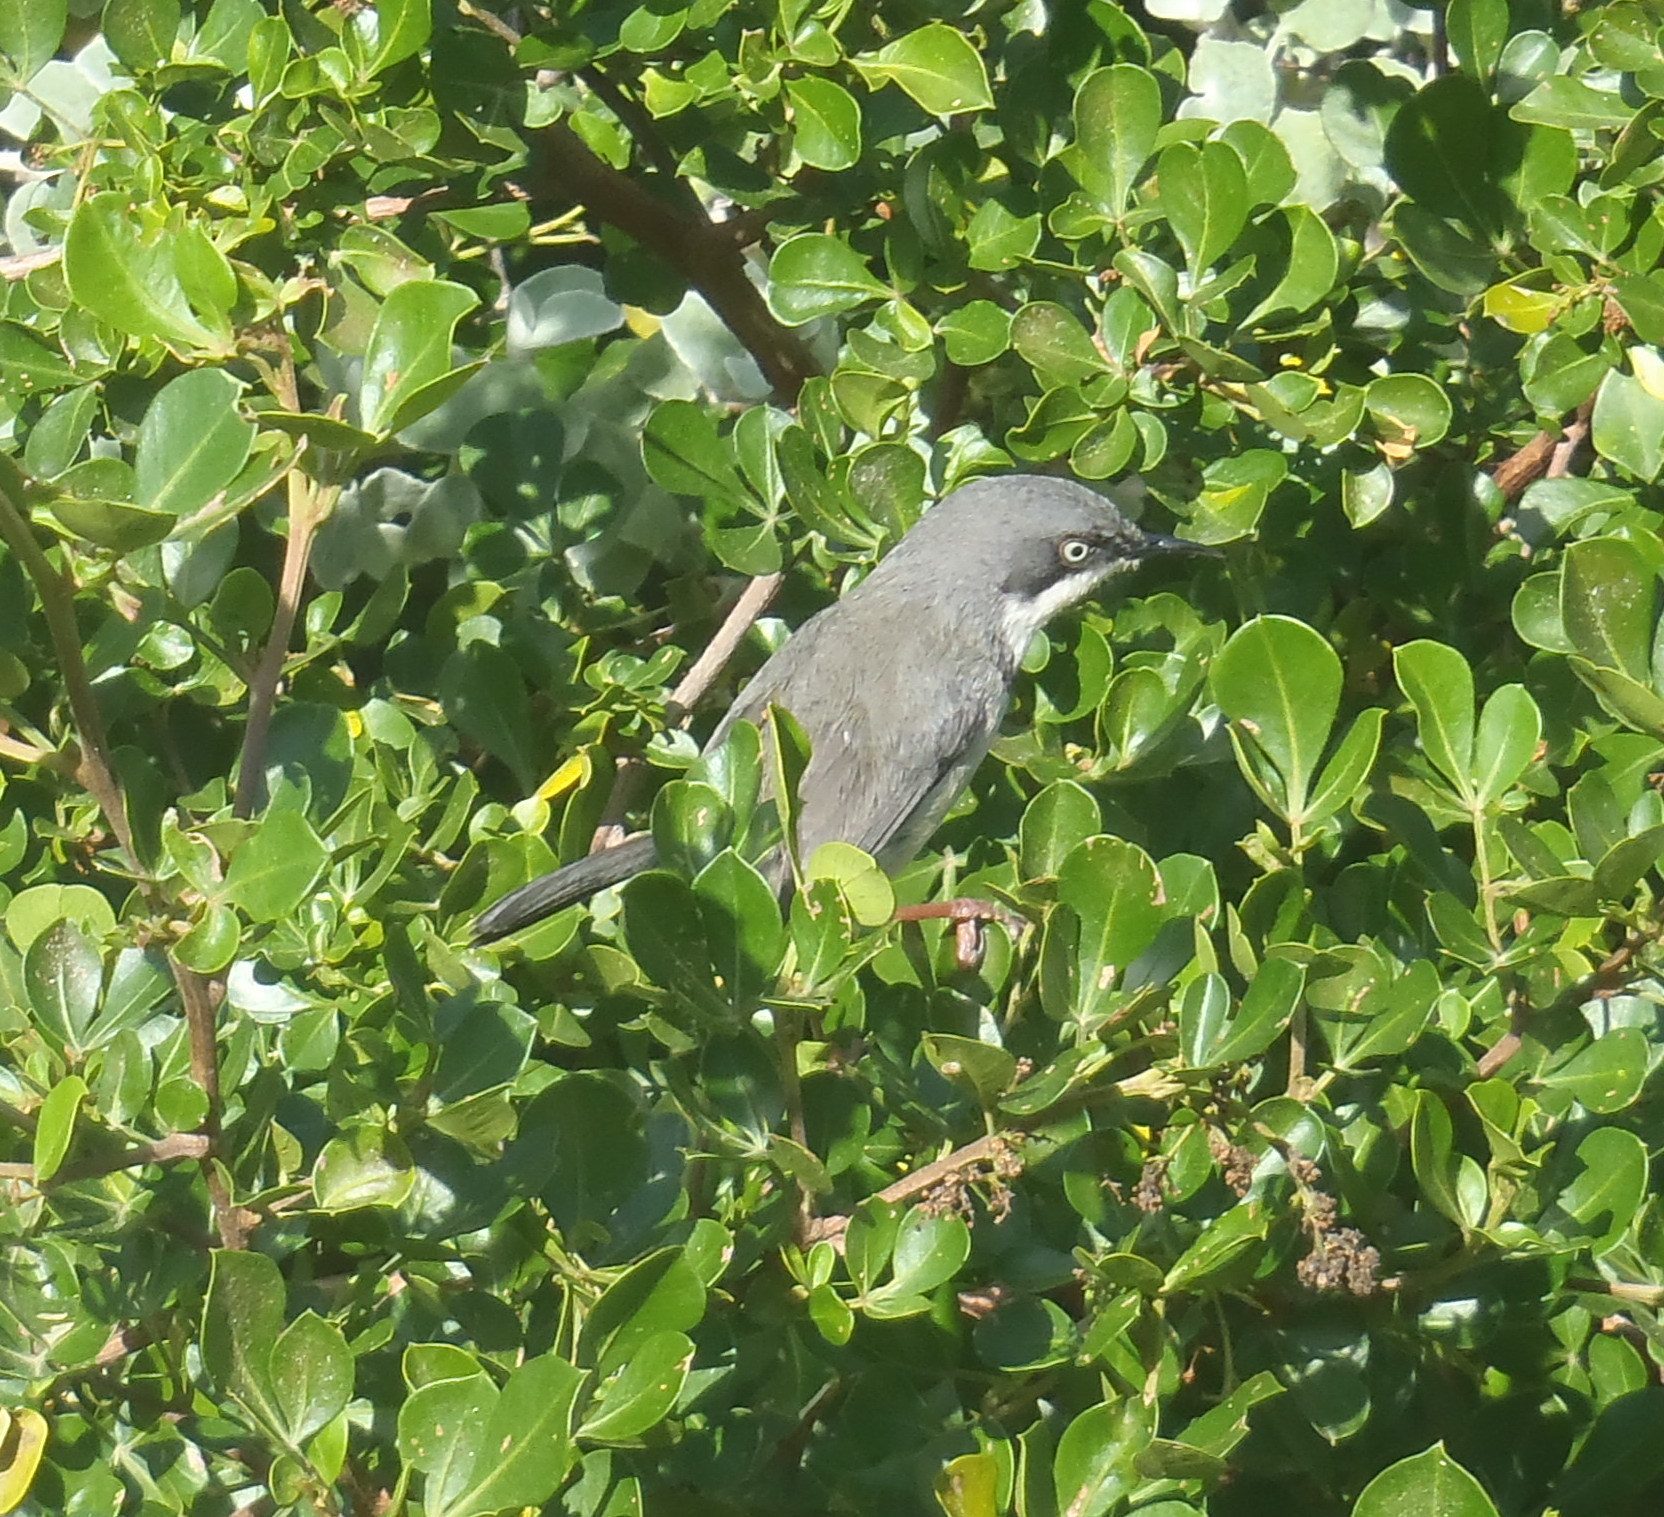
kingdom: Animalia
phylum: Chordata
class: Aves
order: Passeriformes
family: Cisticolidae
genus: Apalis
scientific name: Apalis thoracica
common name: Bar-throated apalis
